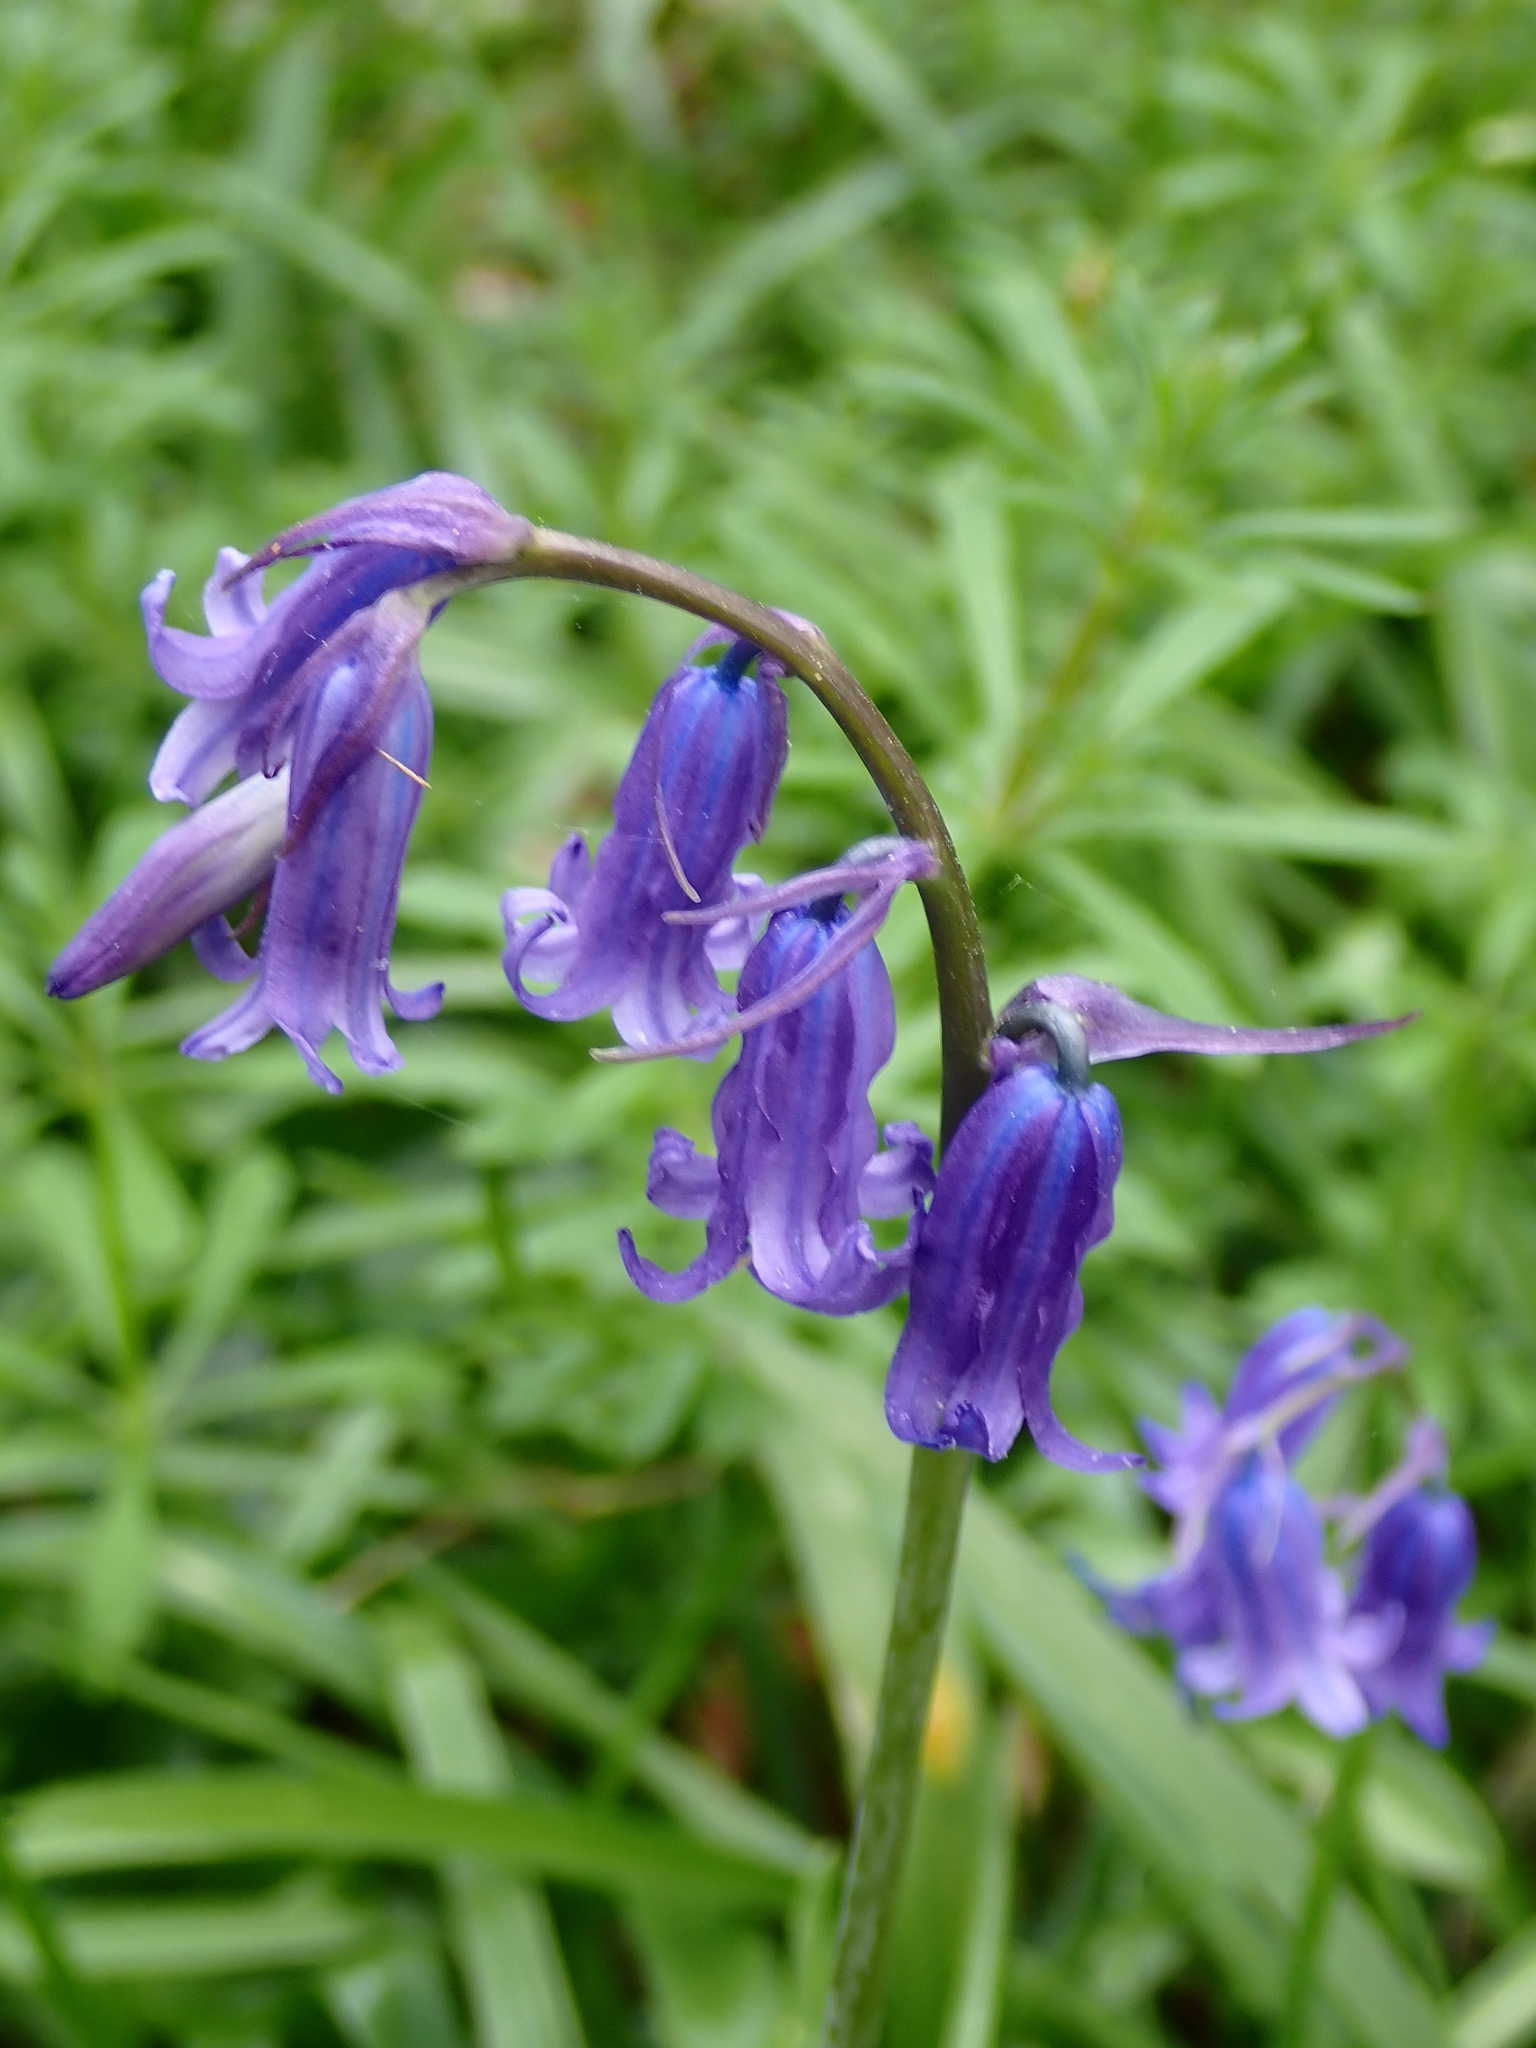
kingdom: Plantae
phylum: Tracheophyta
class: Liliopsida
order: Asparagales
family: Asparagaceae
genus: Hyacinthoides
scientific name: Hyacinthoides non-scripta
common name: Bluebell
